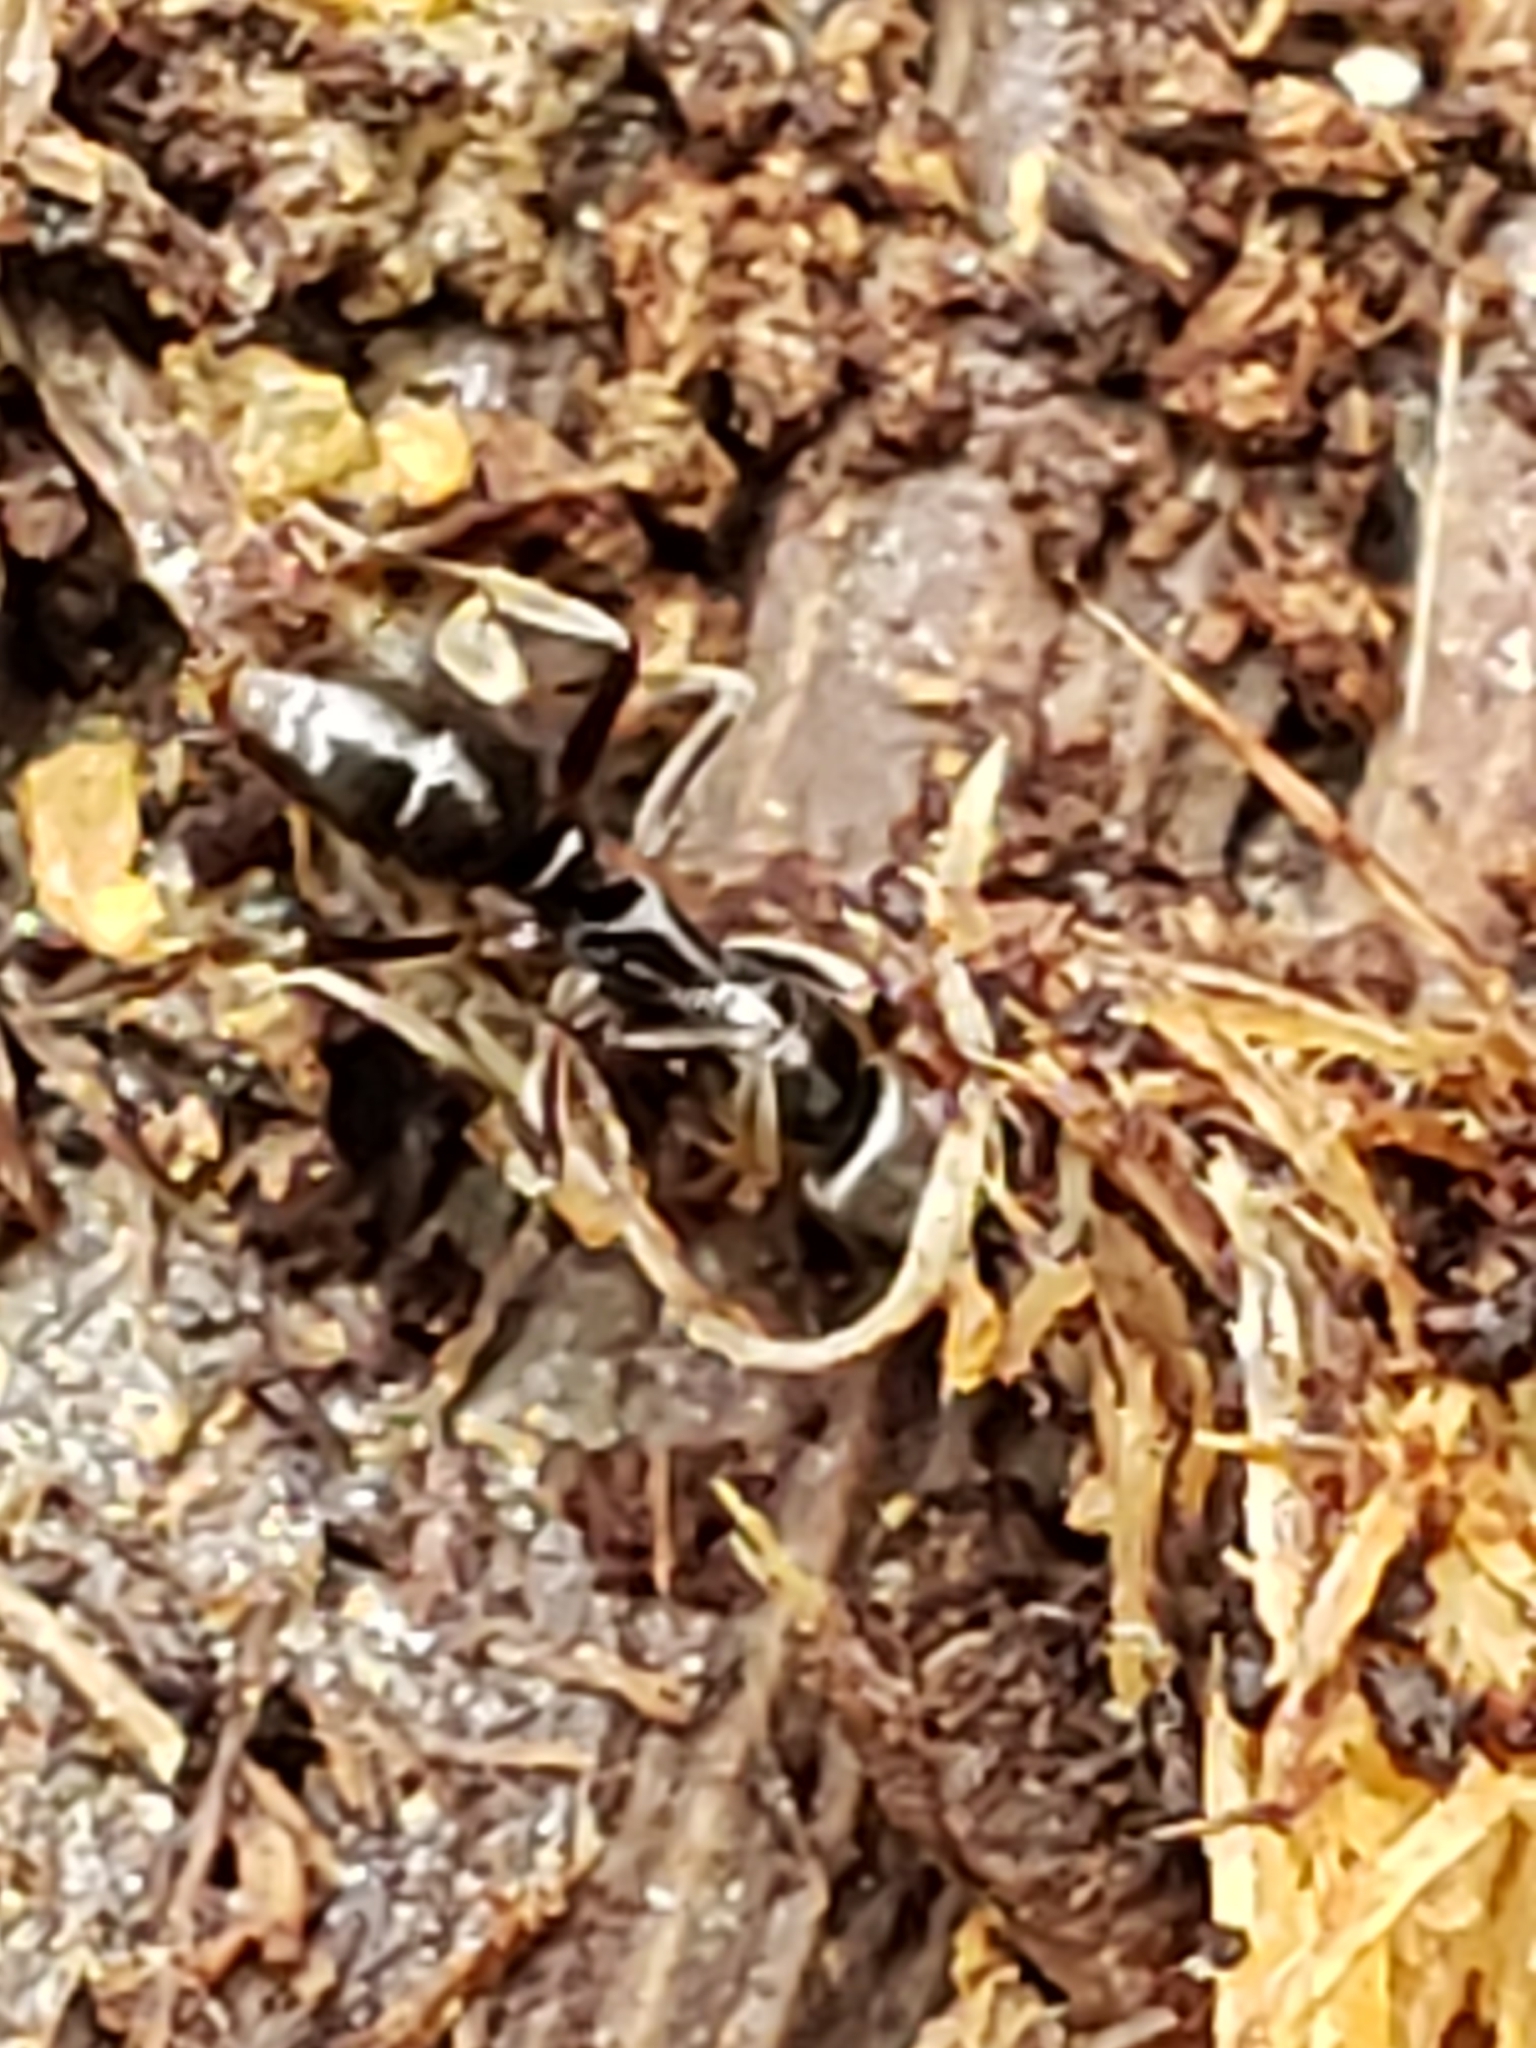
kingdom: Animalia
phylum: Arthropoda
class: Insecta
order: Hymenoptera
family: Formicidae
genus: Pachycondyla
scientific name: Pachycondyla chinensis
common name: Asian needle ant
